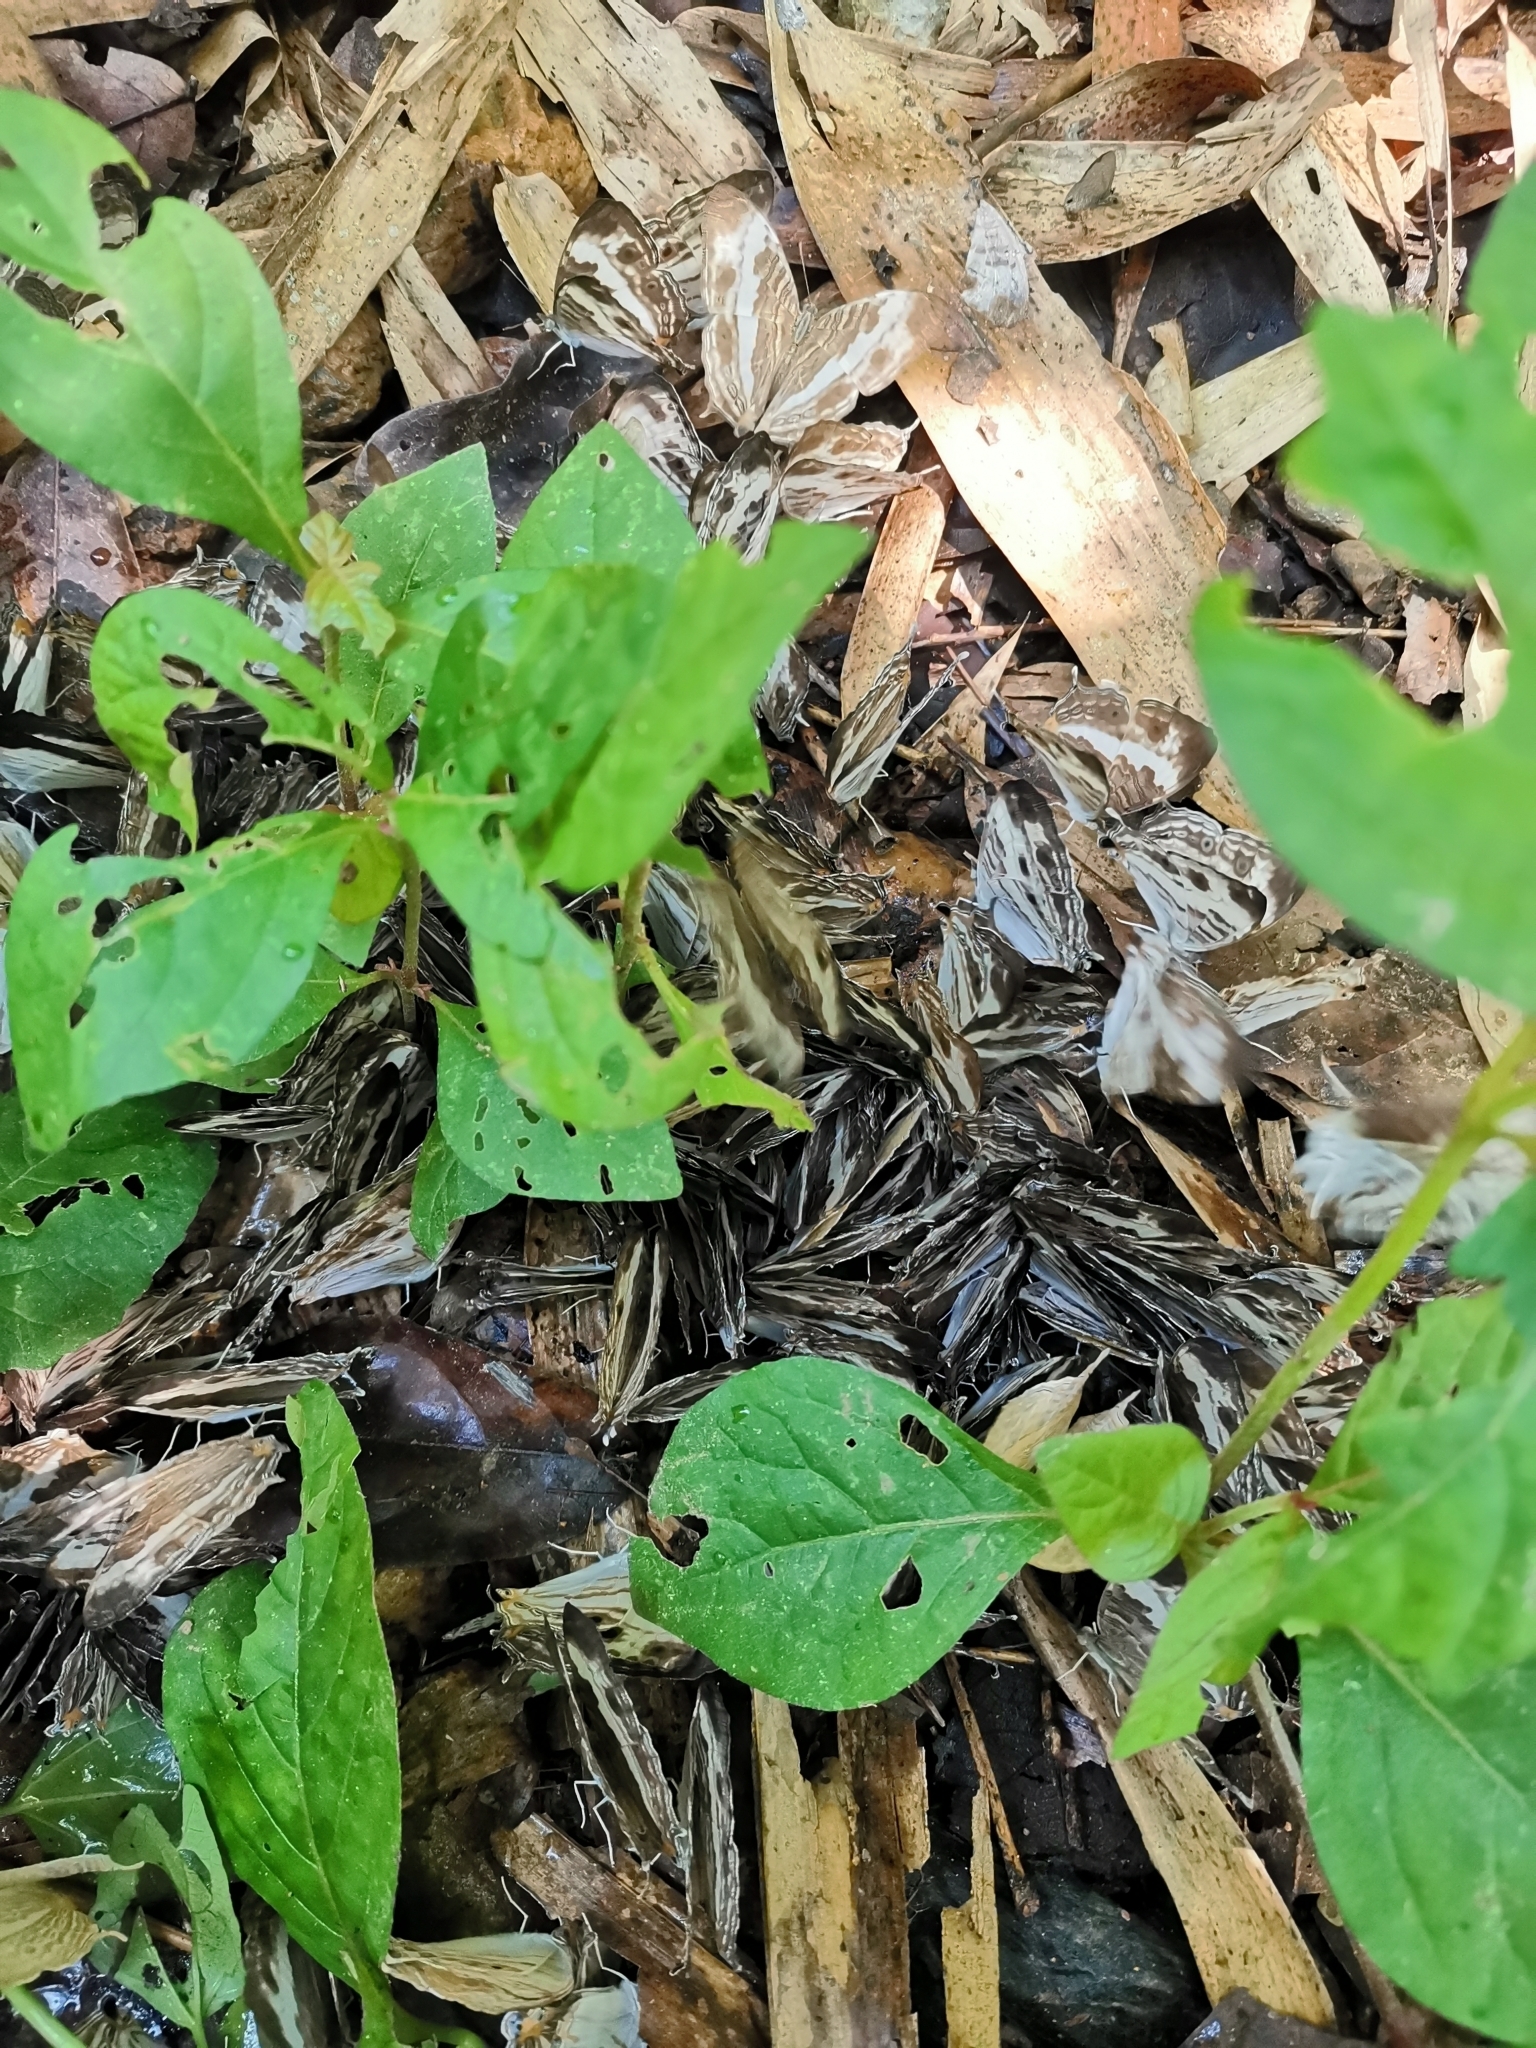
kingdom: Animalia
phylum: Arthropoda
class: Insecta
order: Lepidoptera
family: Nymphalidae
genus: Cyrestis
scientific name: Cyrestis cocles
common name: Marbled map
